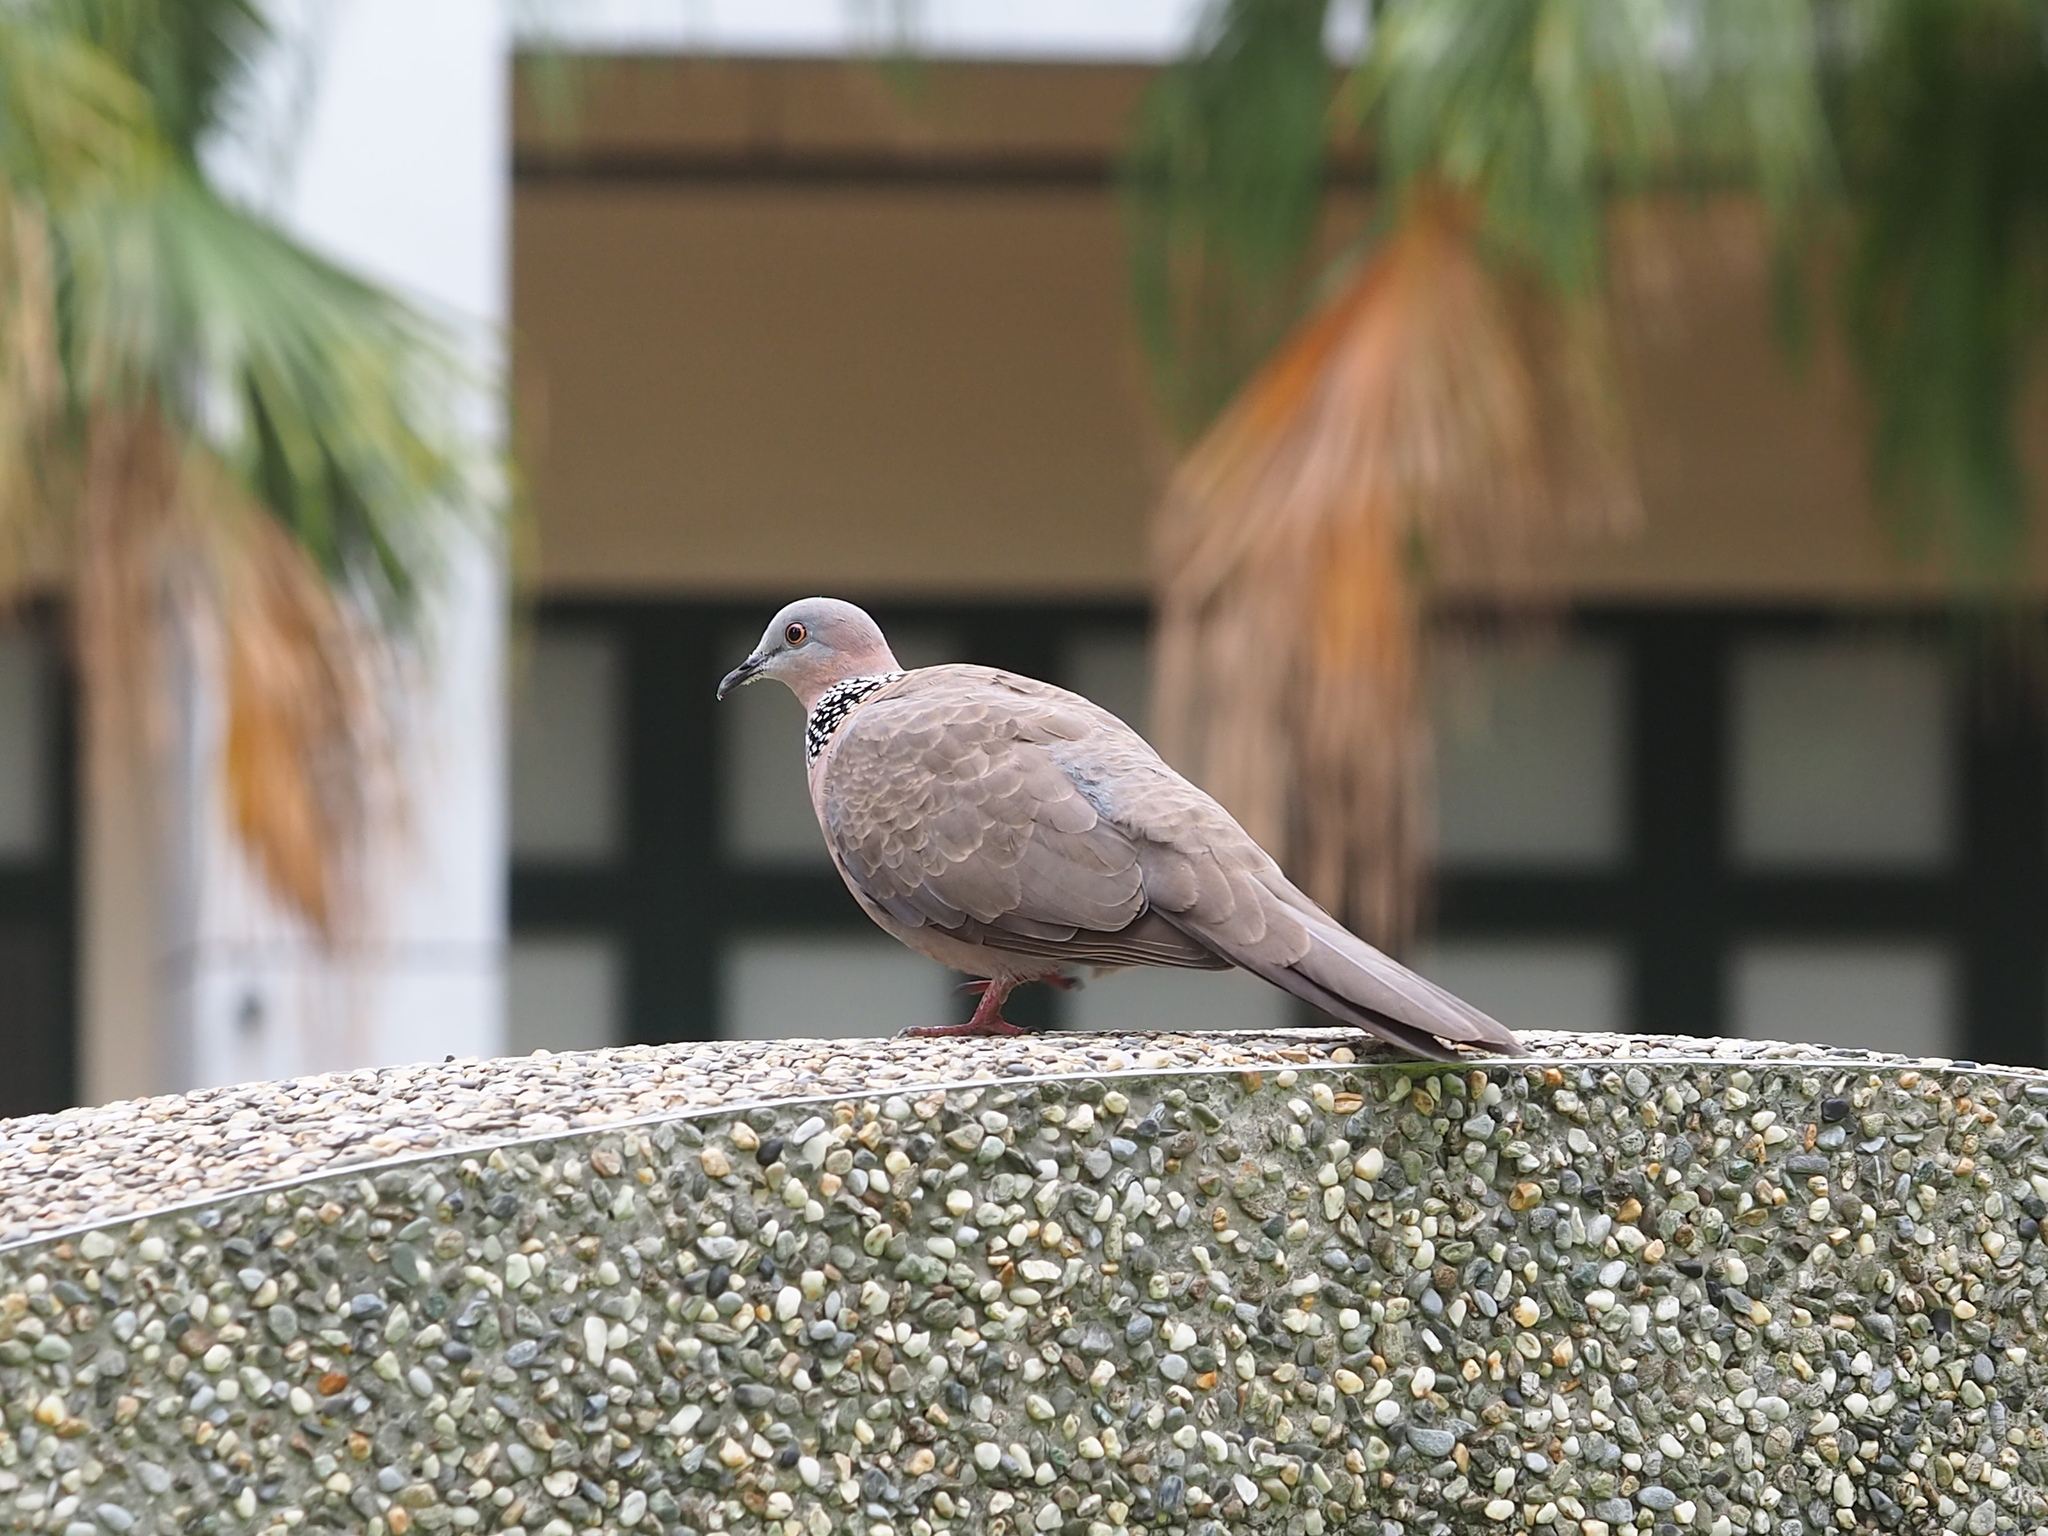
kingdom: Animalia
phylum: Chordata
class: Aves
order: Columbiformes
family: Columbidae
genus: Spilopelia
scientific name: Spilopelia chinensis
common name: Spotted dove
